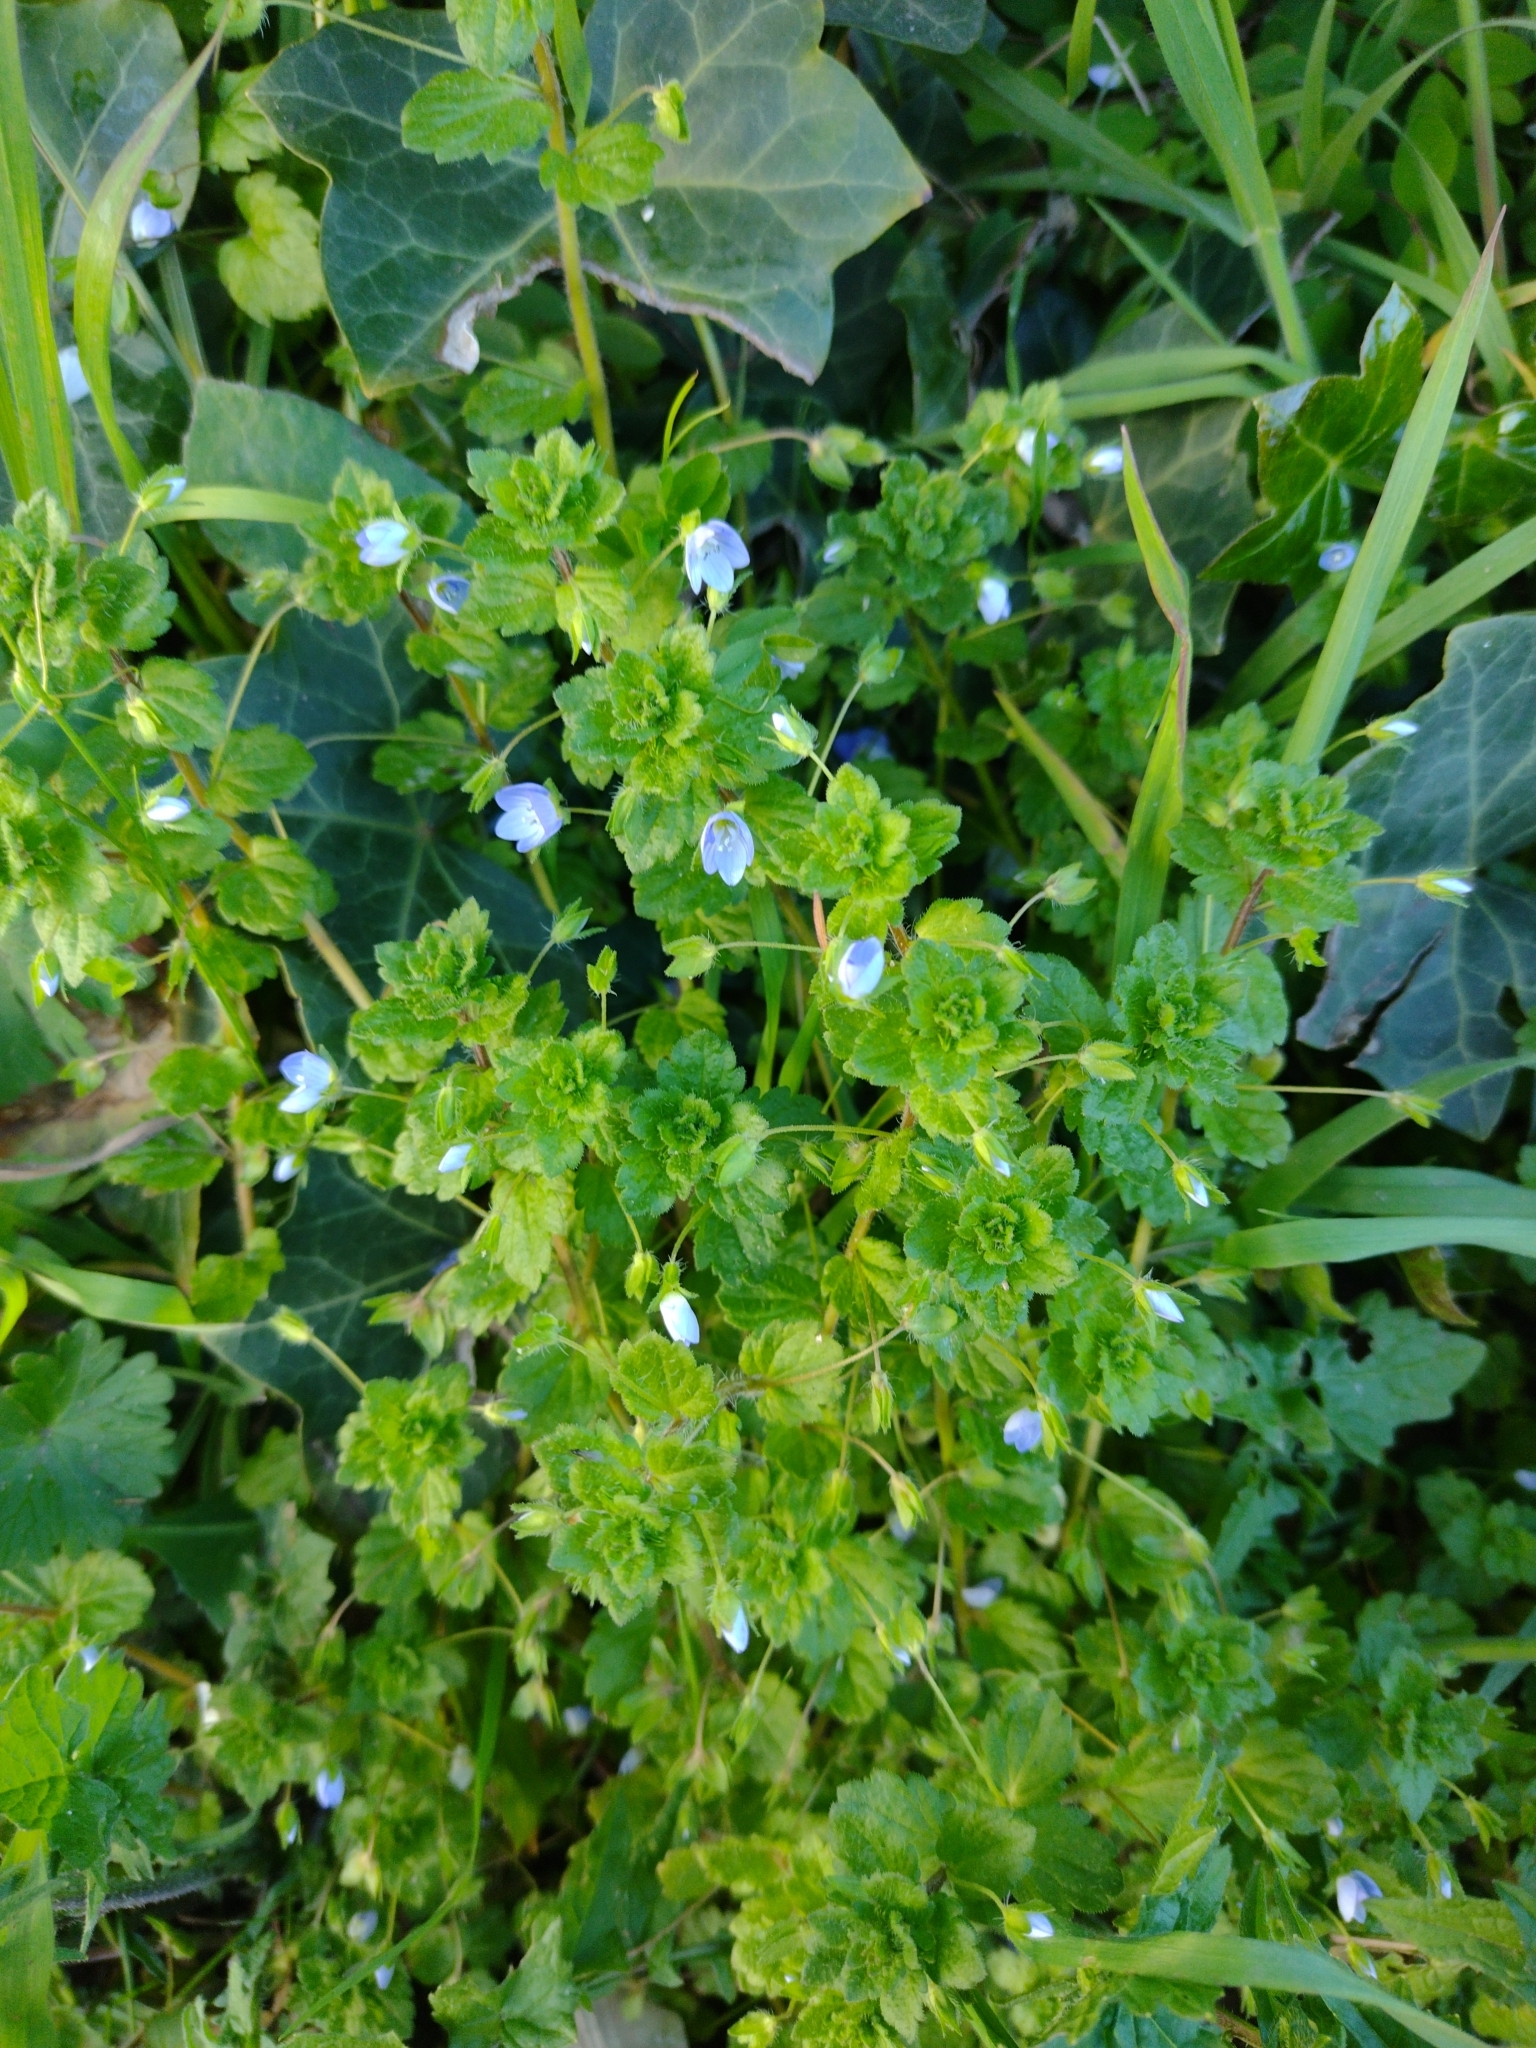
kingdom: Plantae
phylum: Tracheophyta
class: Magnoliopsida
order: Lamiales
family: Plantaginaceae
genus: Veronica
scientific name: Veronica persica
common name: Common field-speedwell
